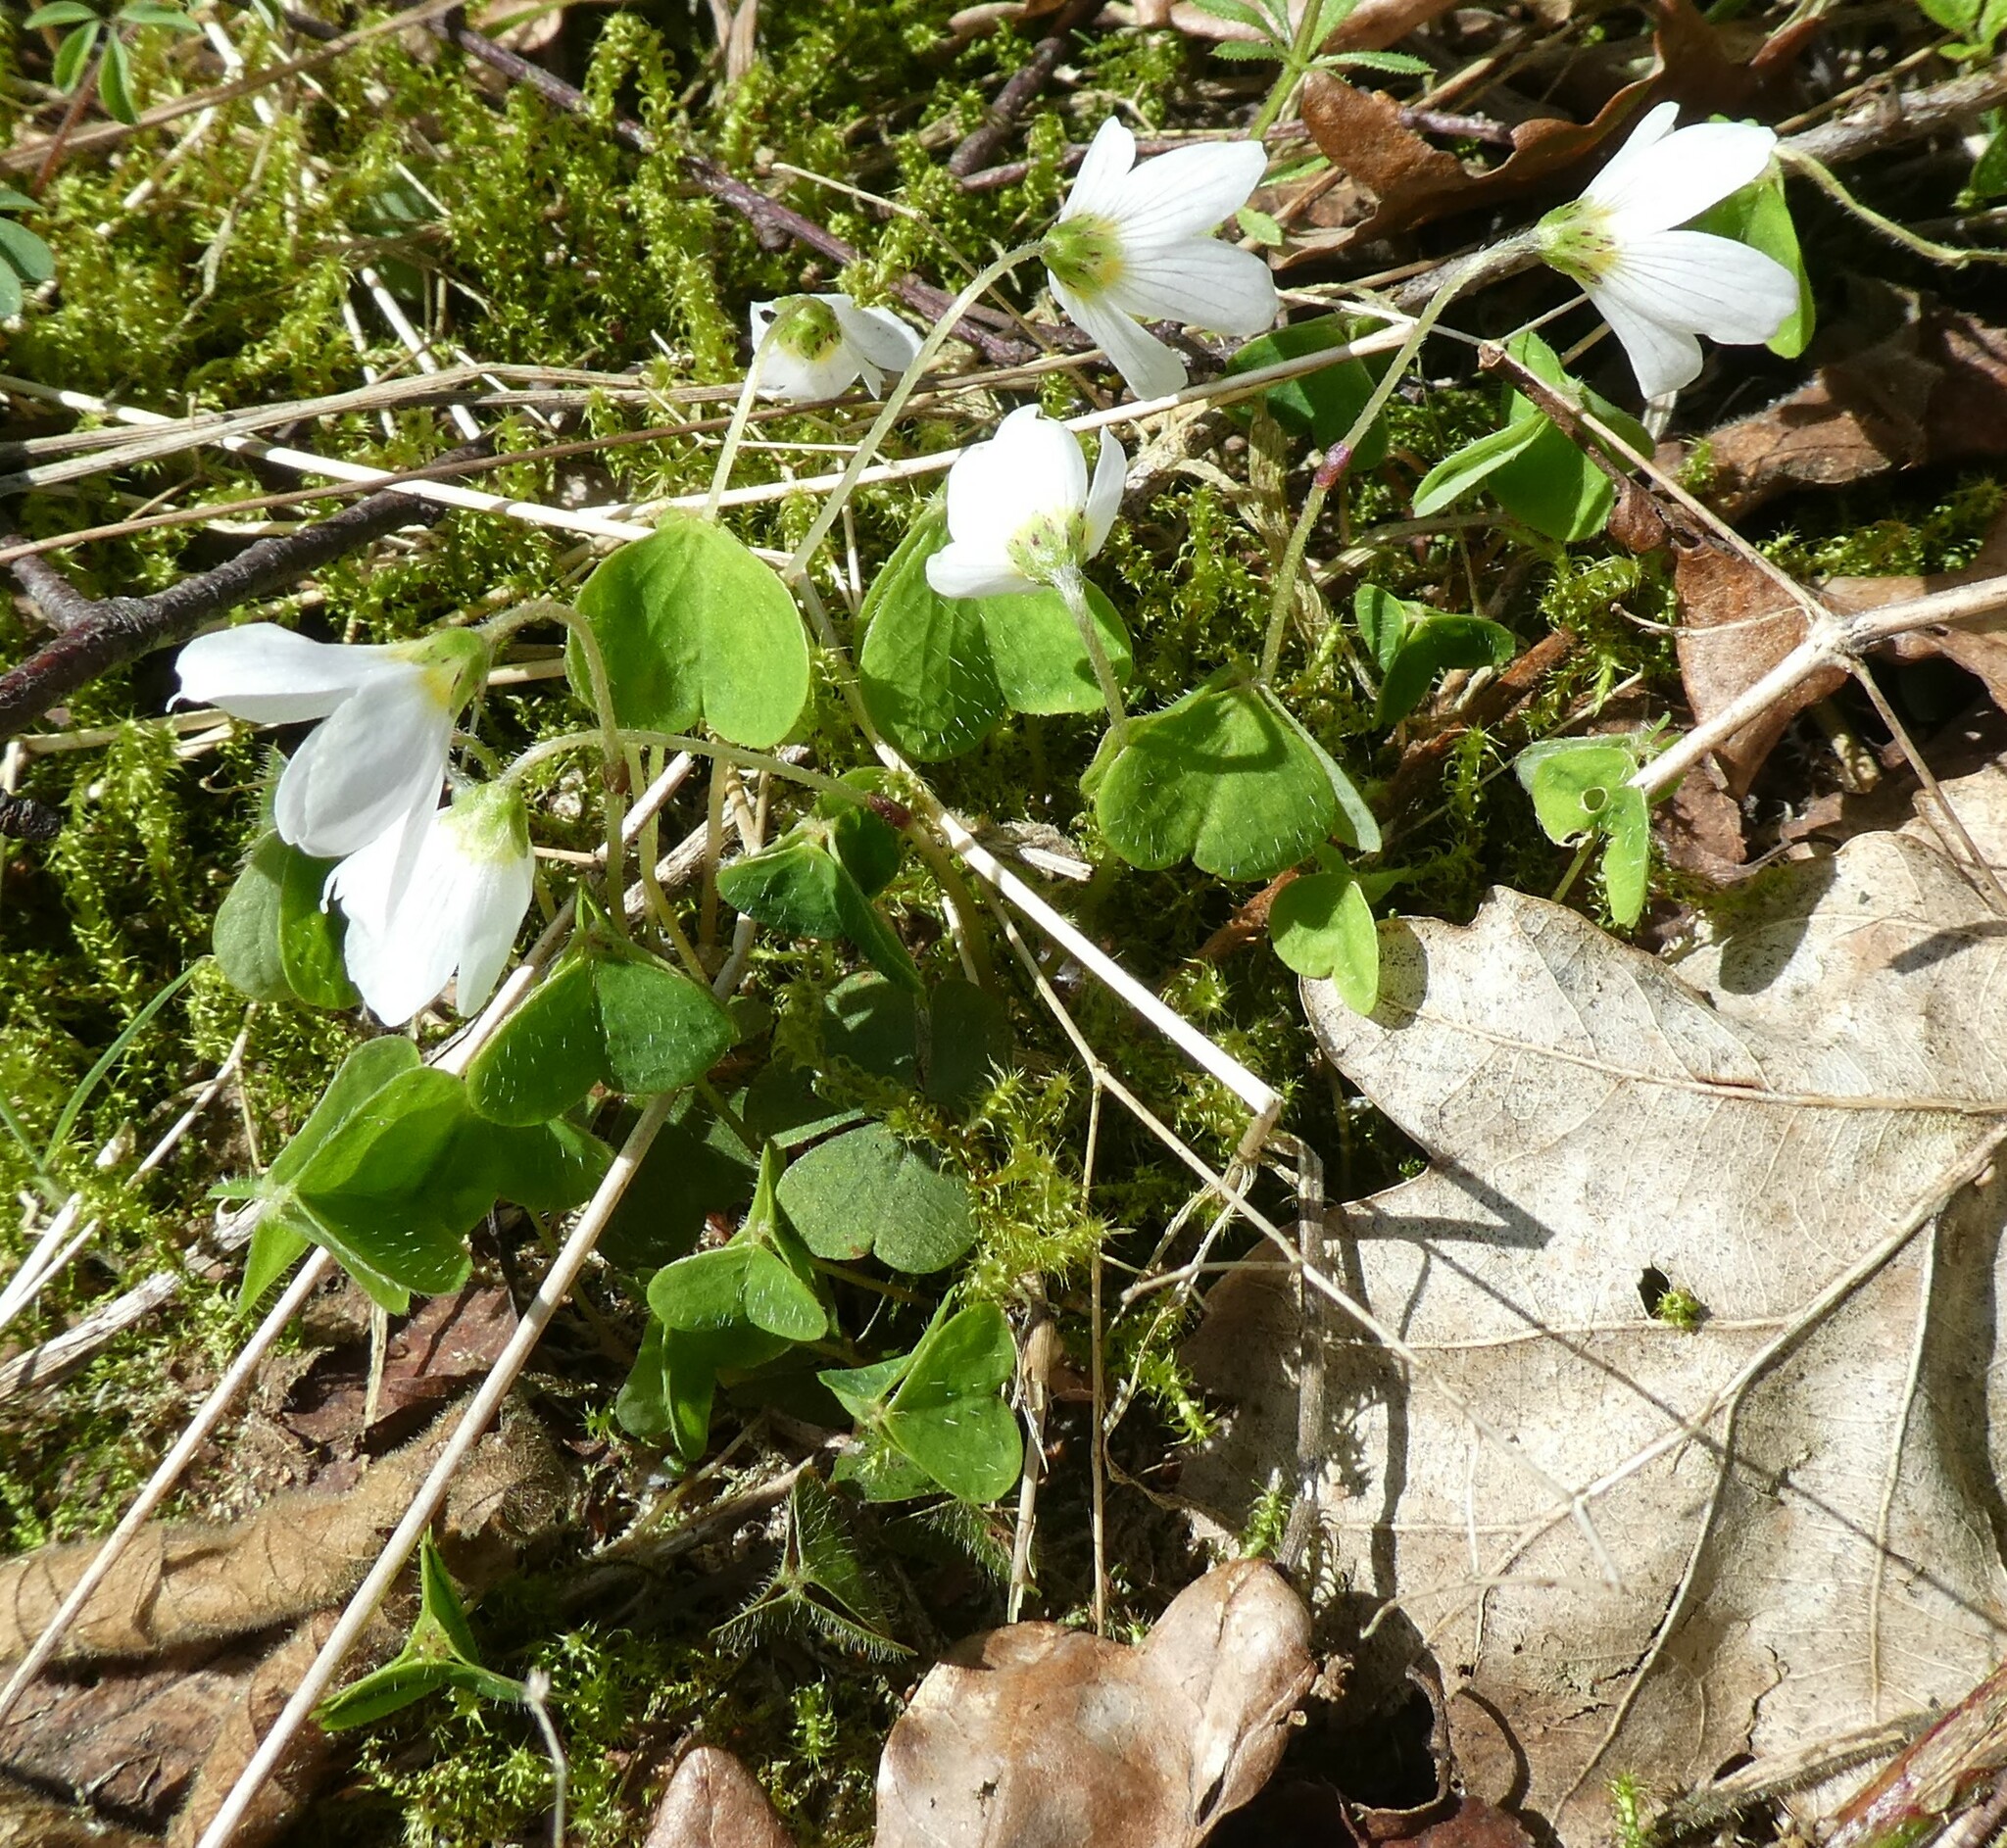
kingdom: Plantae
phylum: Tracheophyta
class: Magnoliopsida
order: Oxalidales
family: Oxalidaceae
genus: Oxalis
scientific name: Oxalis acetosella
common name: Wood-sorrel
